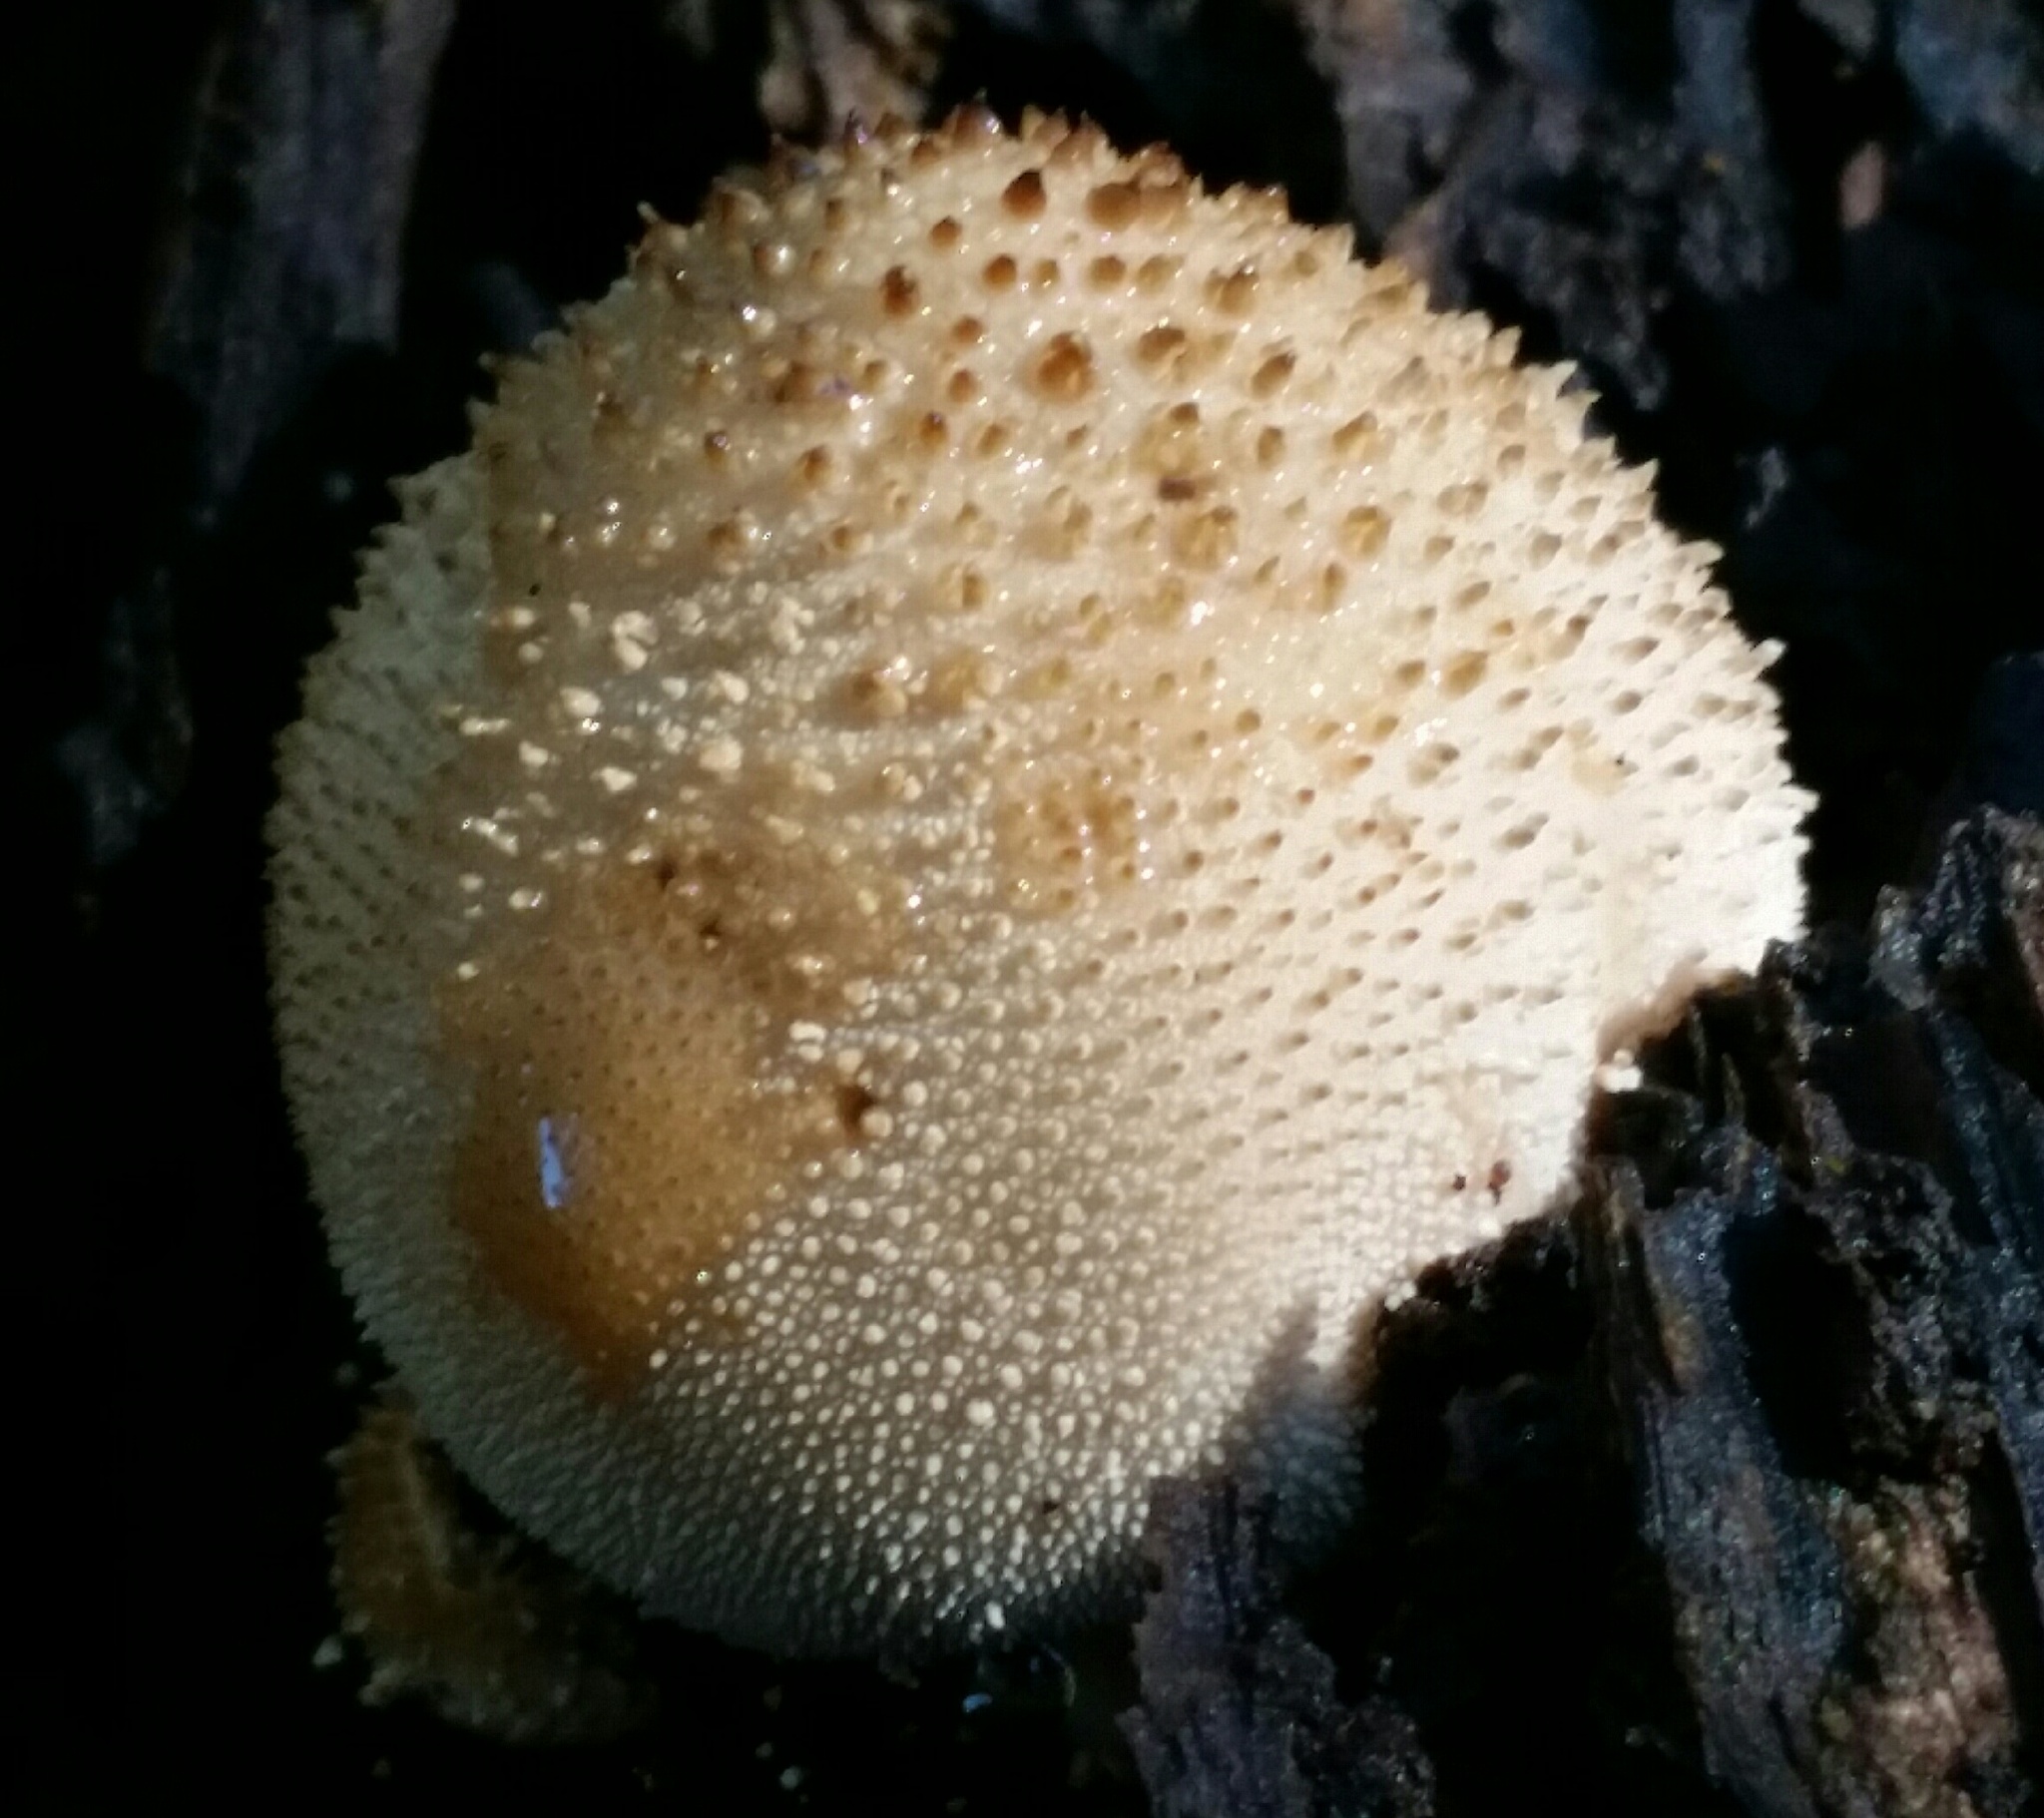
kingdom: Fungi
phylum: Basidiomycota
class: Agaricomycetes
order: Agaricales
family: Lycoperdaceae
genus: Lycoperdon
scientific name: Lycoperdon perlatum
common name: Common puffball
